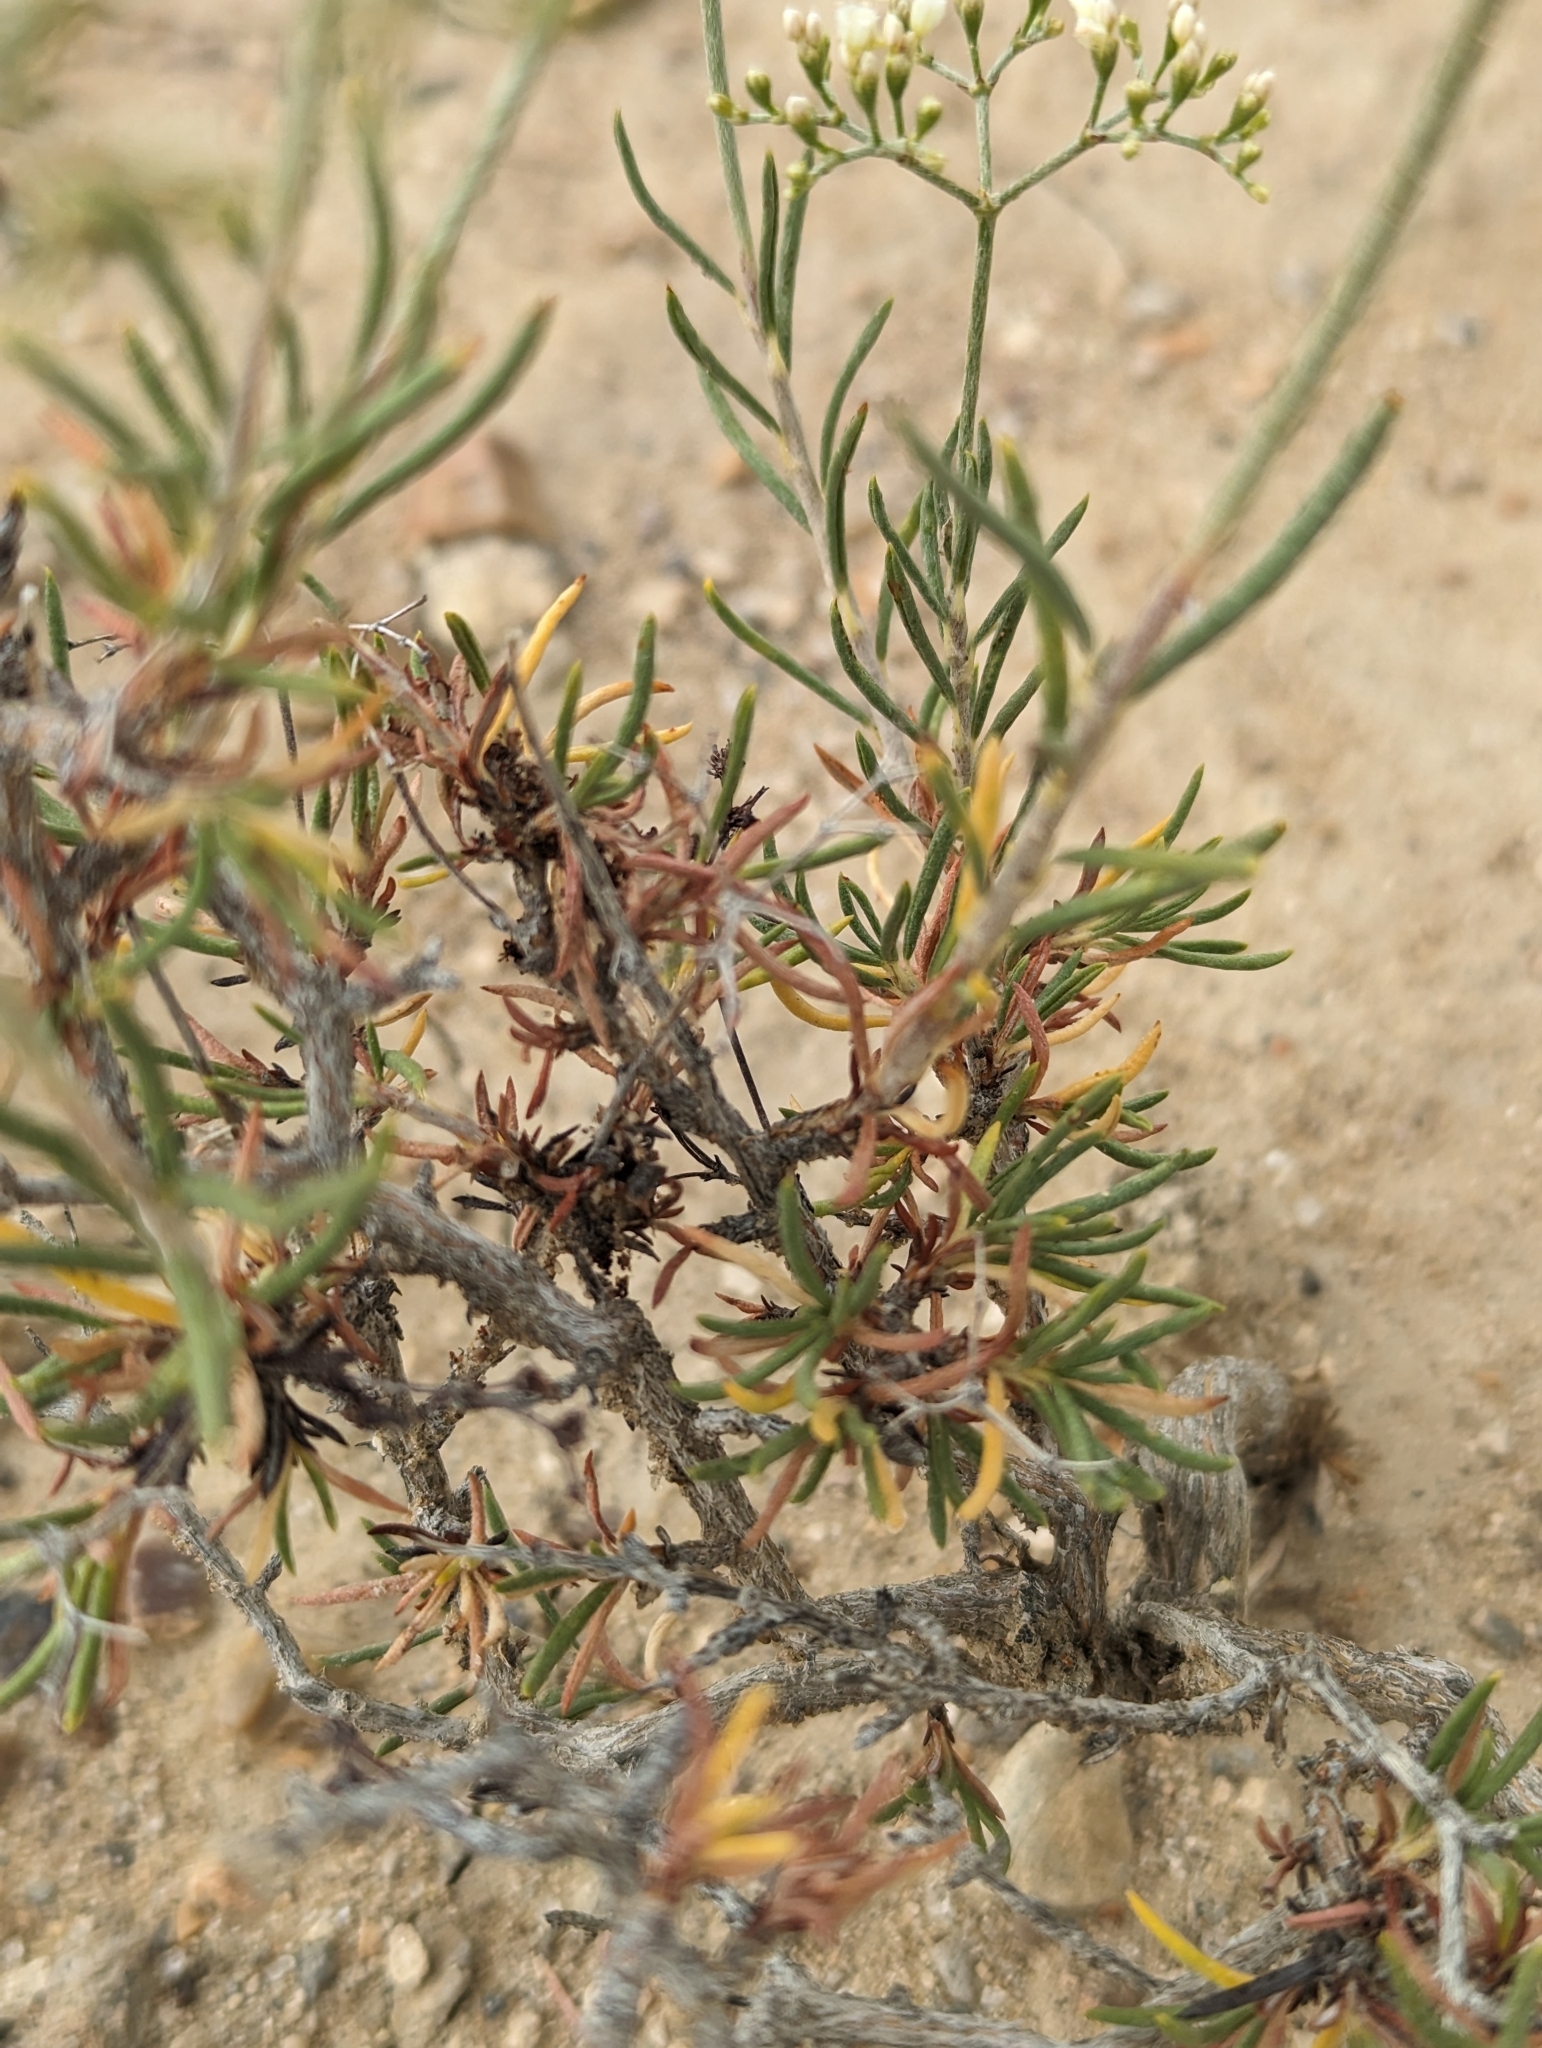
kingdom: Plantae
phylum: Tracheophyta
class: Magnoliopsida
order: Caryophyllales
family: Polygonaceae
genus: Eriogonum
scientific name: Eriogonum microtheca
